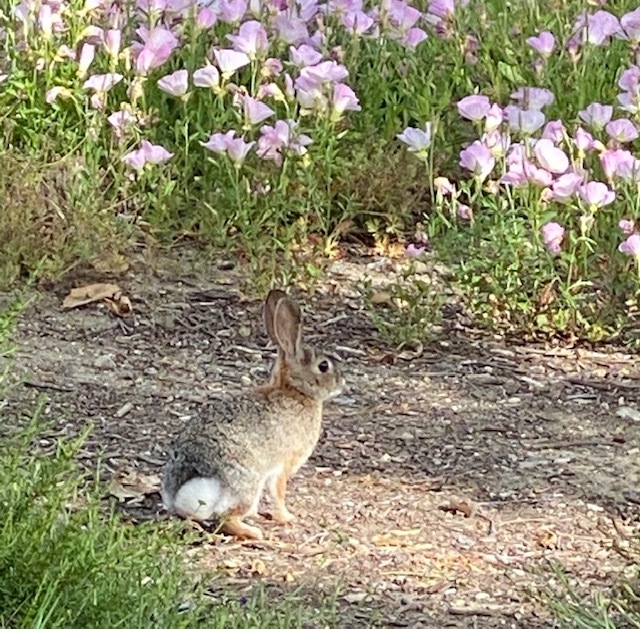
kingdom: Animalia
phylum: Chordata
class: Mammalia
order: Lagomorpha
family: Leporidae
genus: Sylvilagus
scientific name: Sylvilagus audubonii
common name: Desert cottontail
